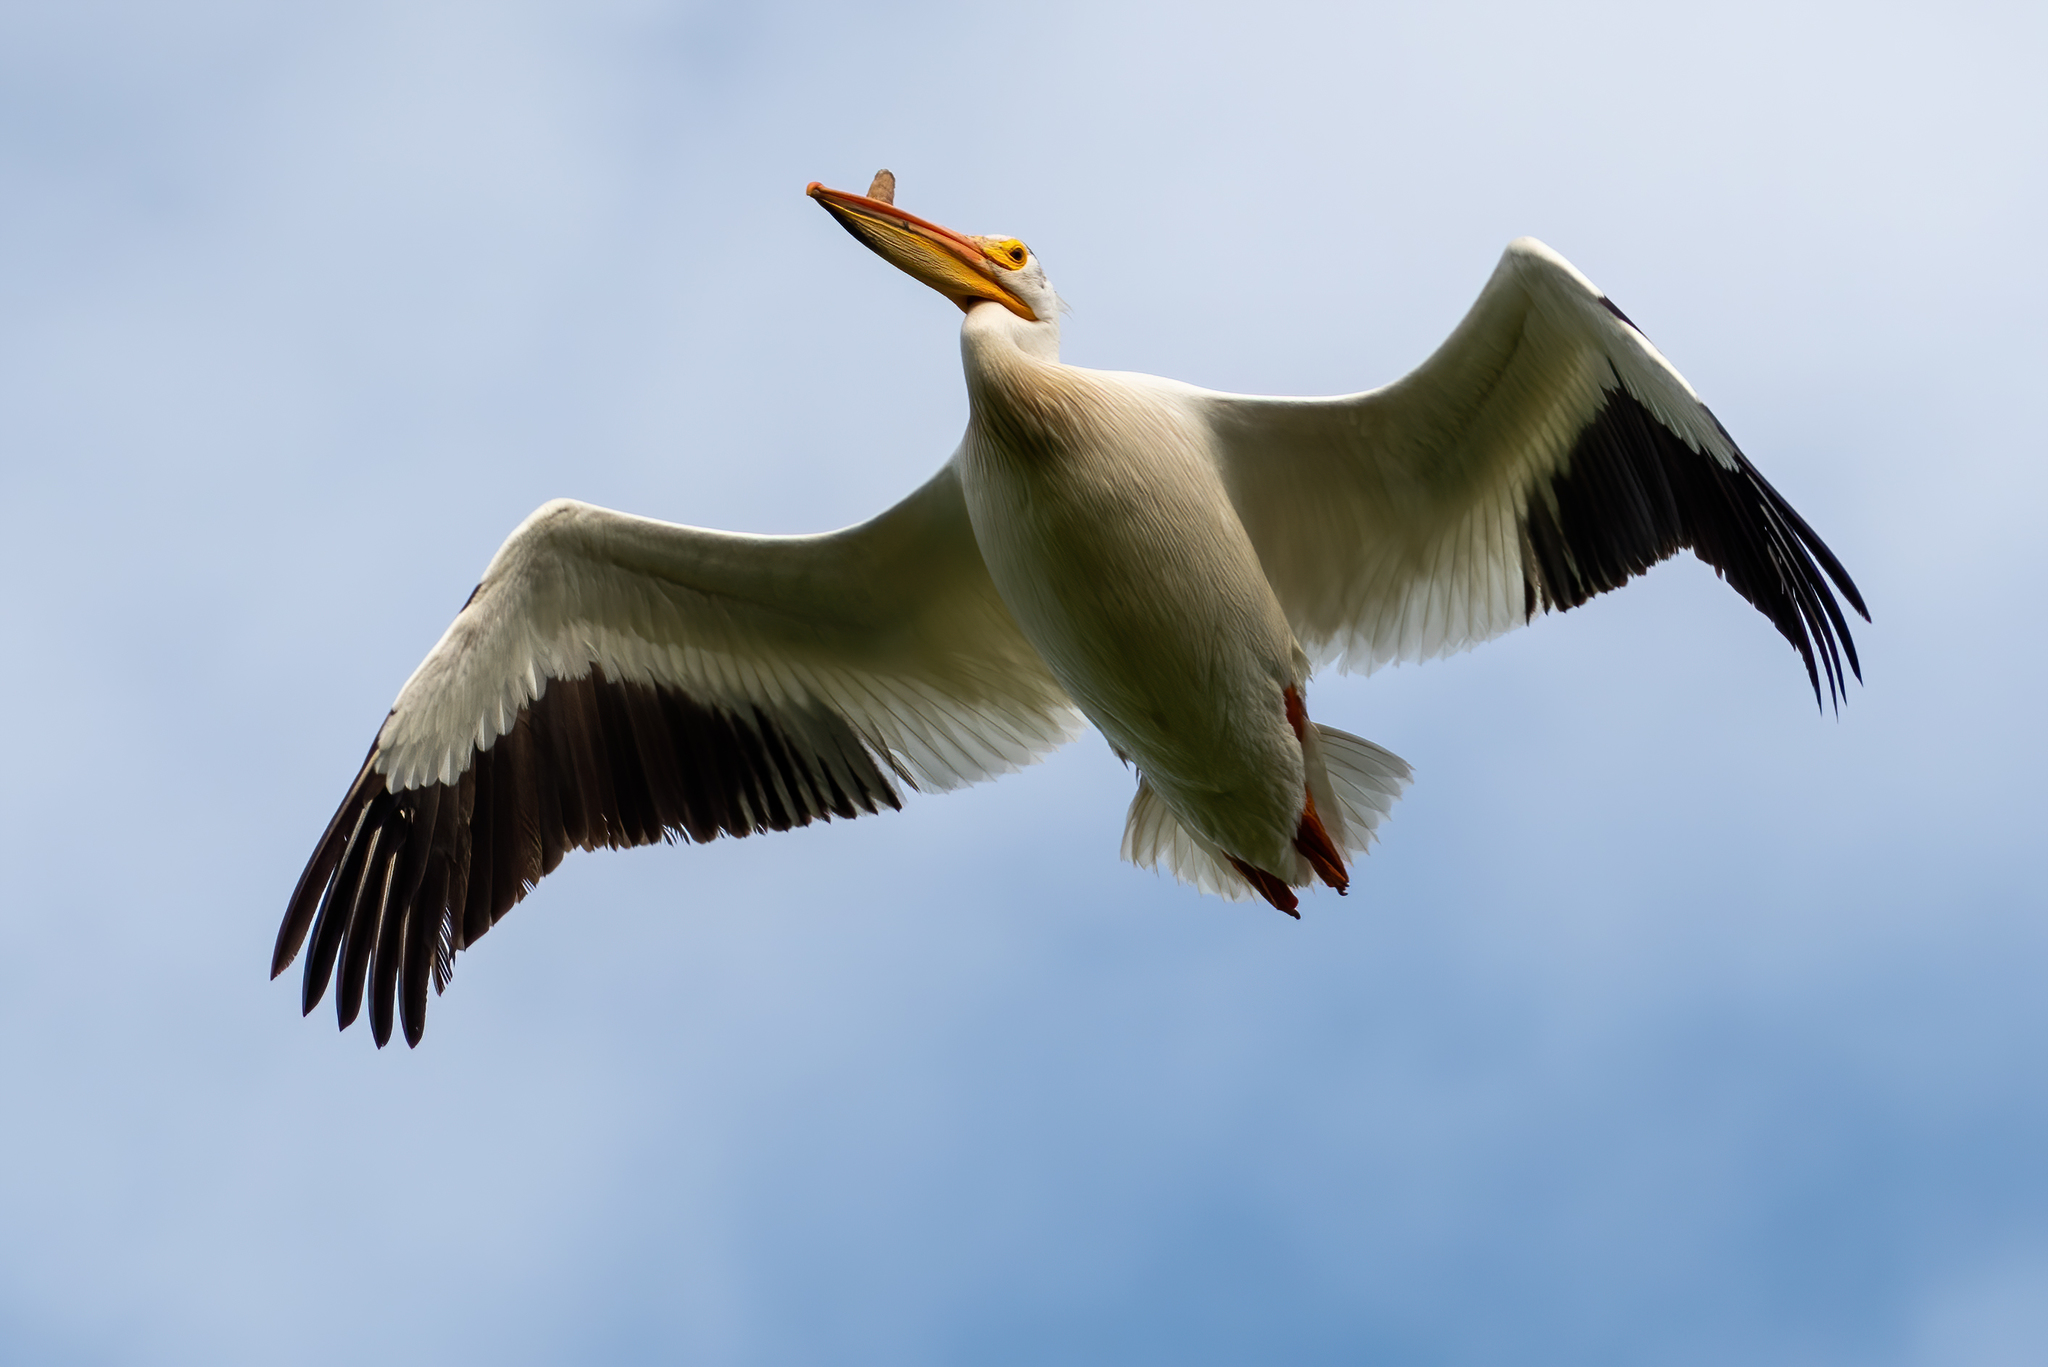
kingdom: Animalia
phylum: Chordata
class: Aves
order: Pelecaniformes
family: Pelecanidae
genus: Pelecanus
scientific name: Pelecanus erythrorhynchos
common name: American white pelican
